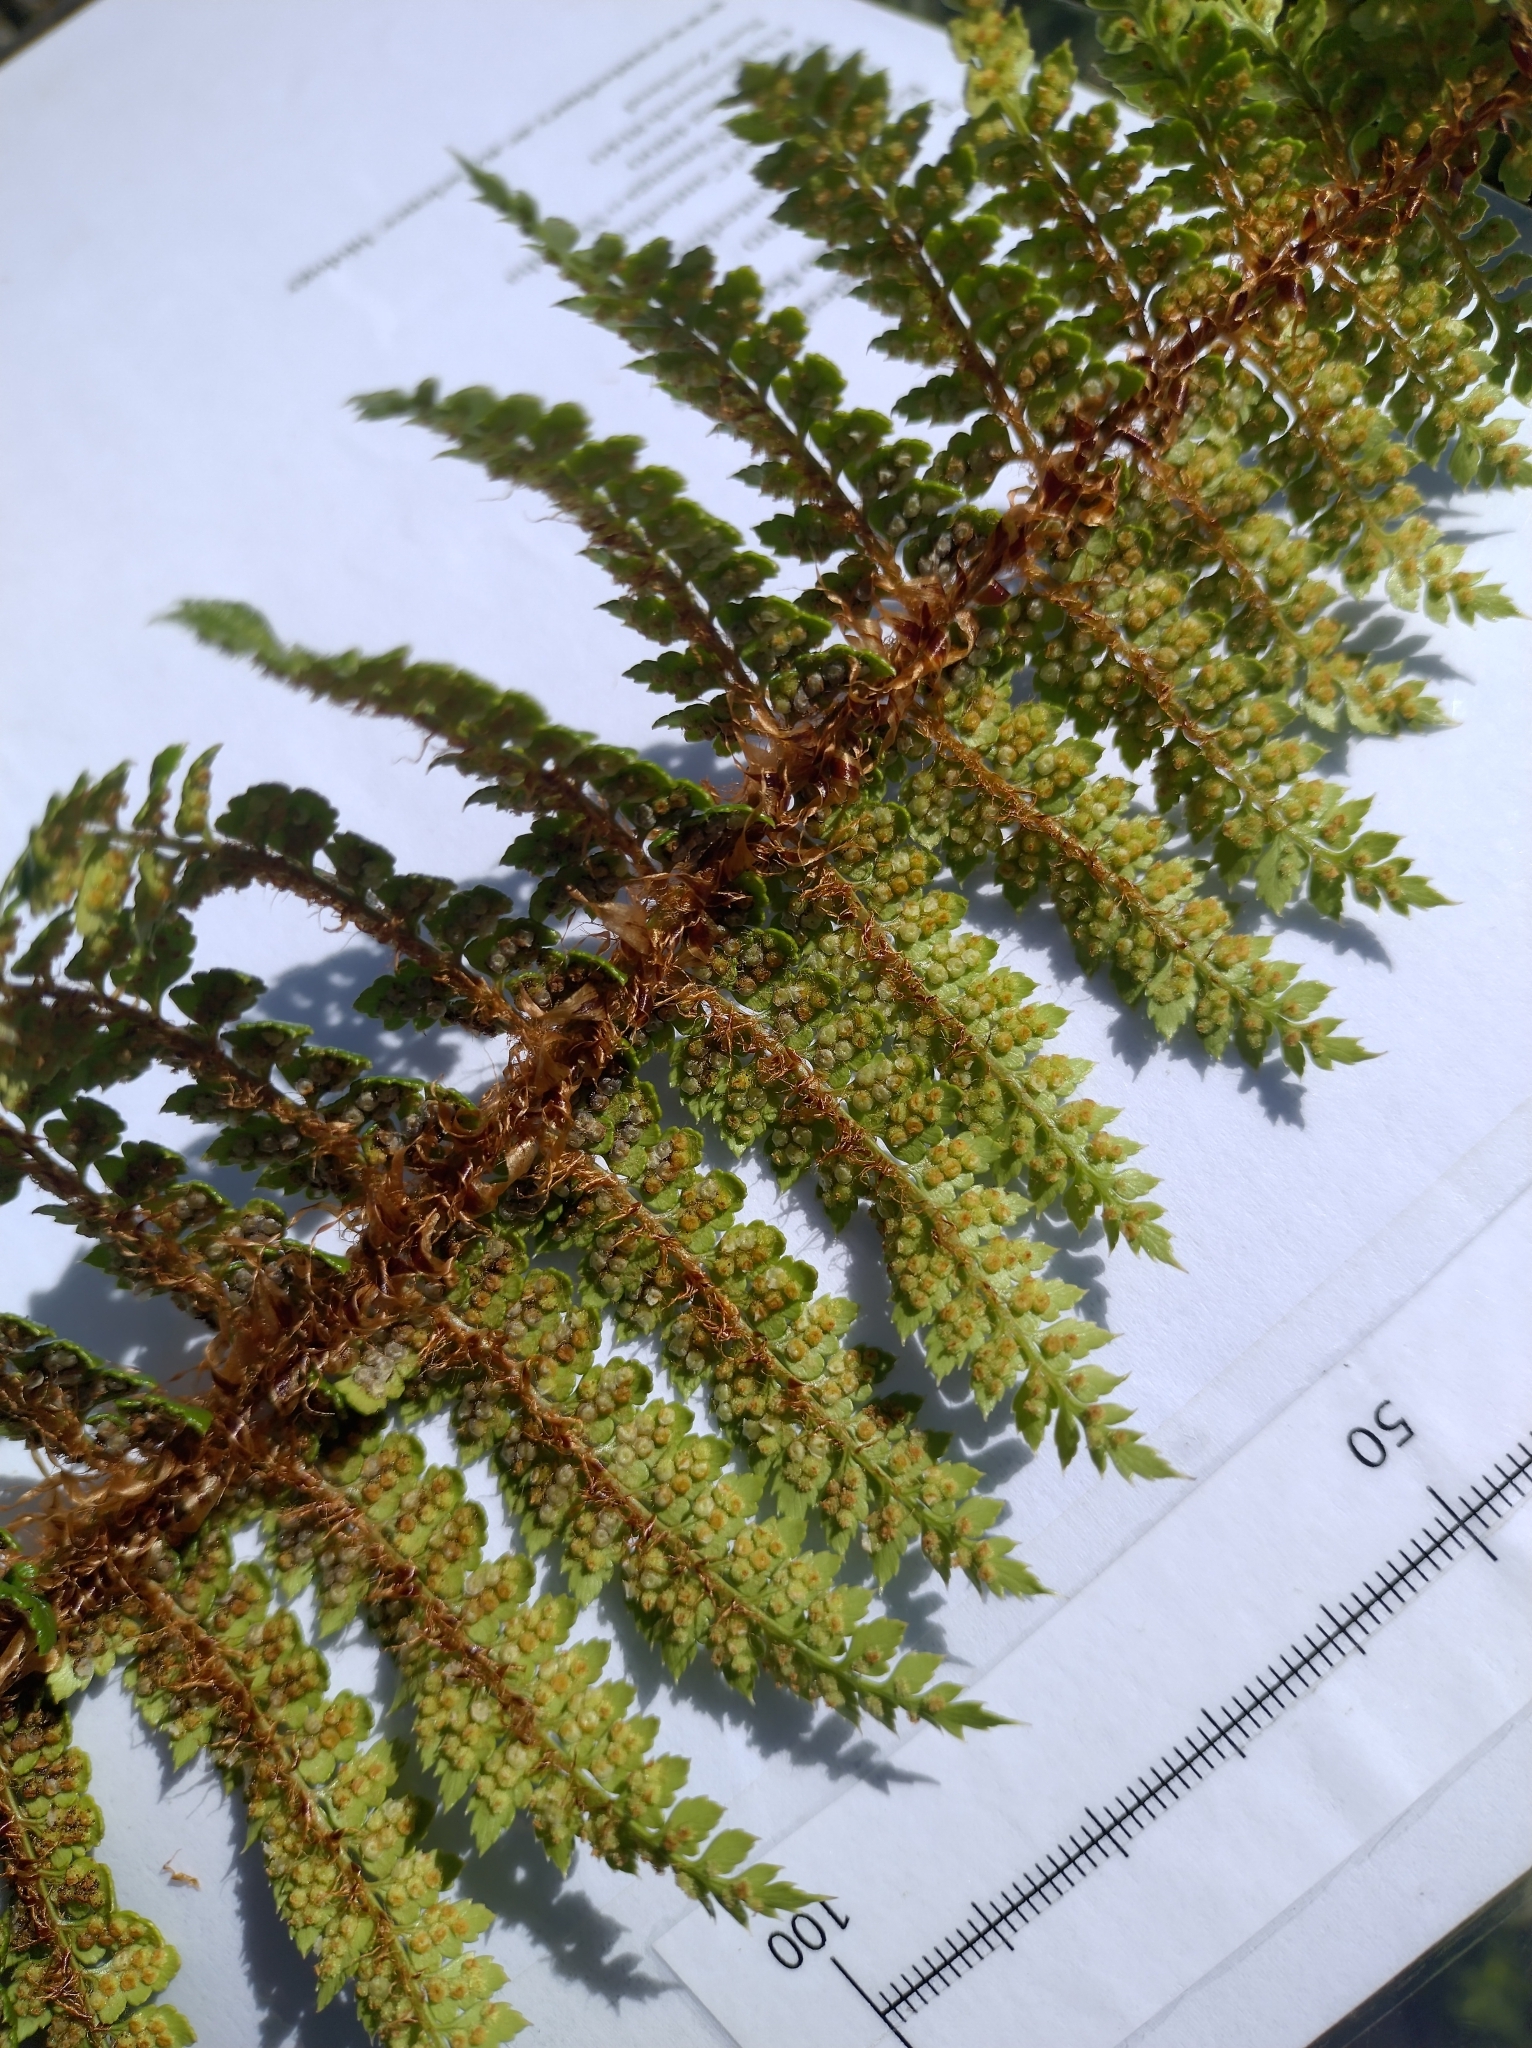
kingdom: Plantae
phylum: Tracheophyta
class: Polypodiopsida
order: Polypodiales
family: Dryopteridaceae
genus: Polystichum
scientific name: Polystichum vestitum
